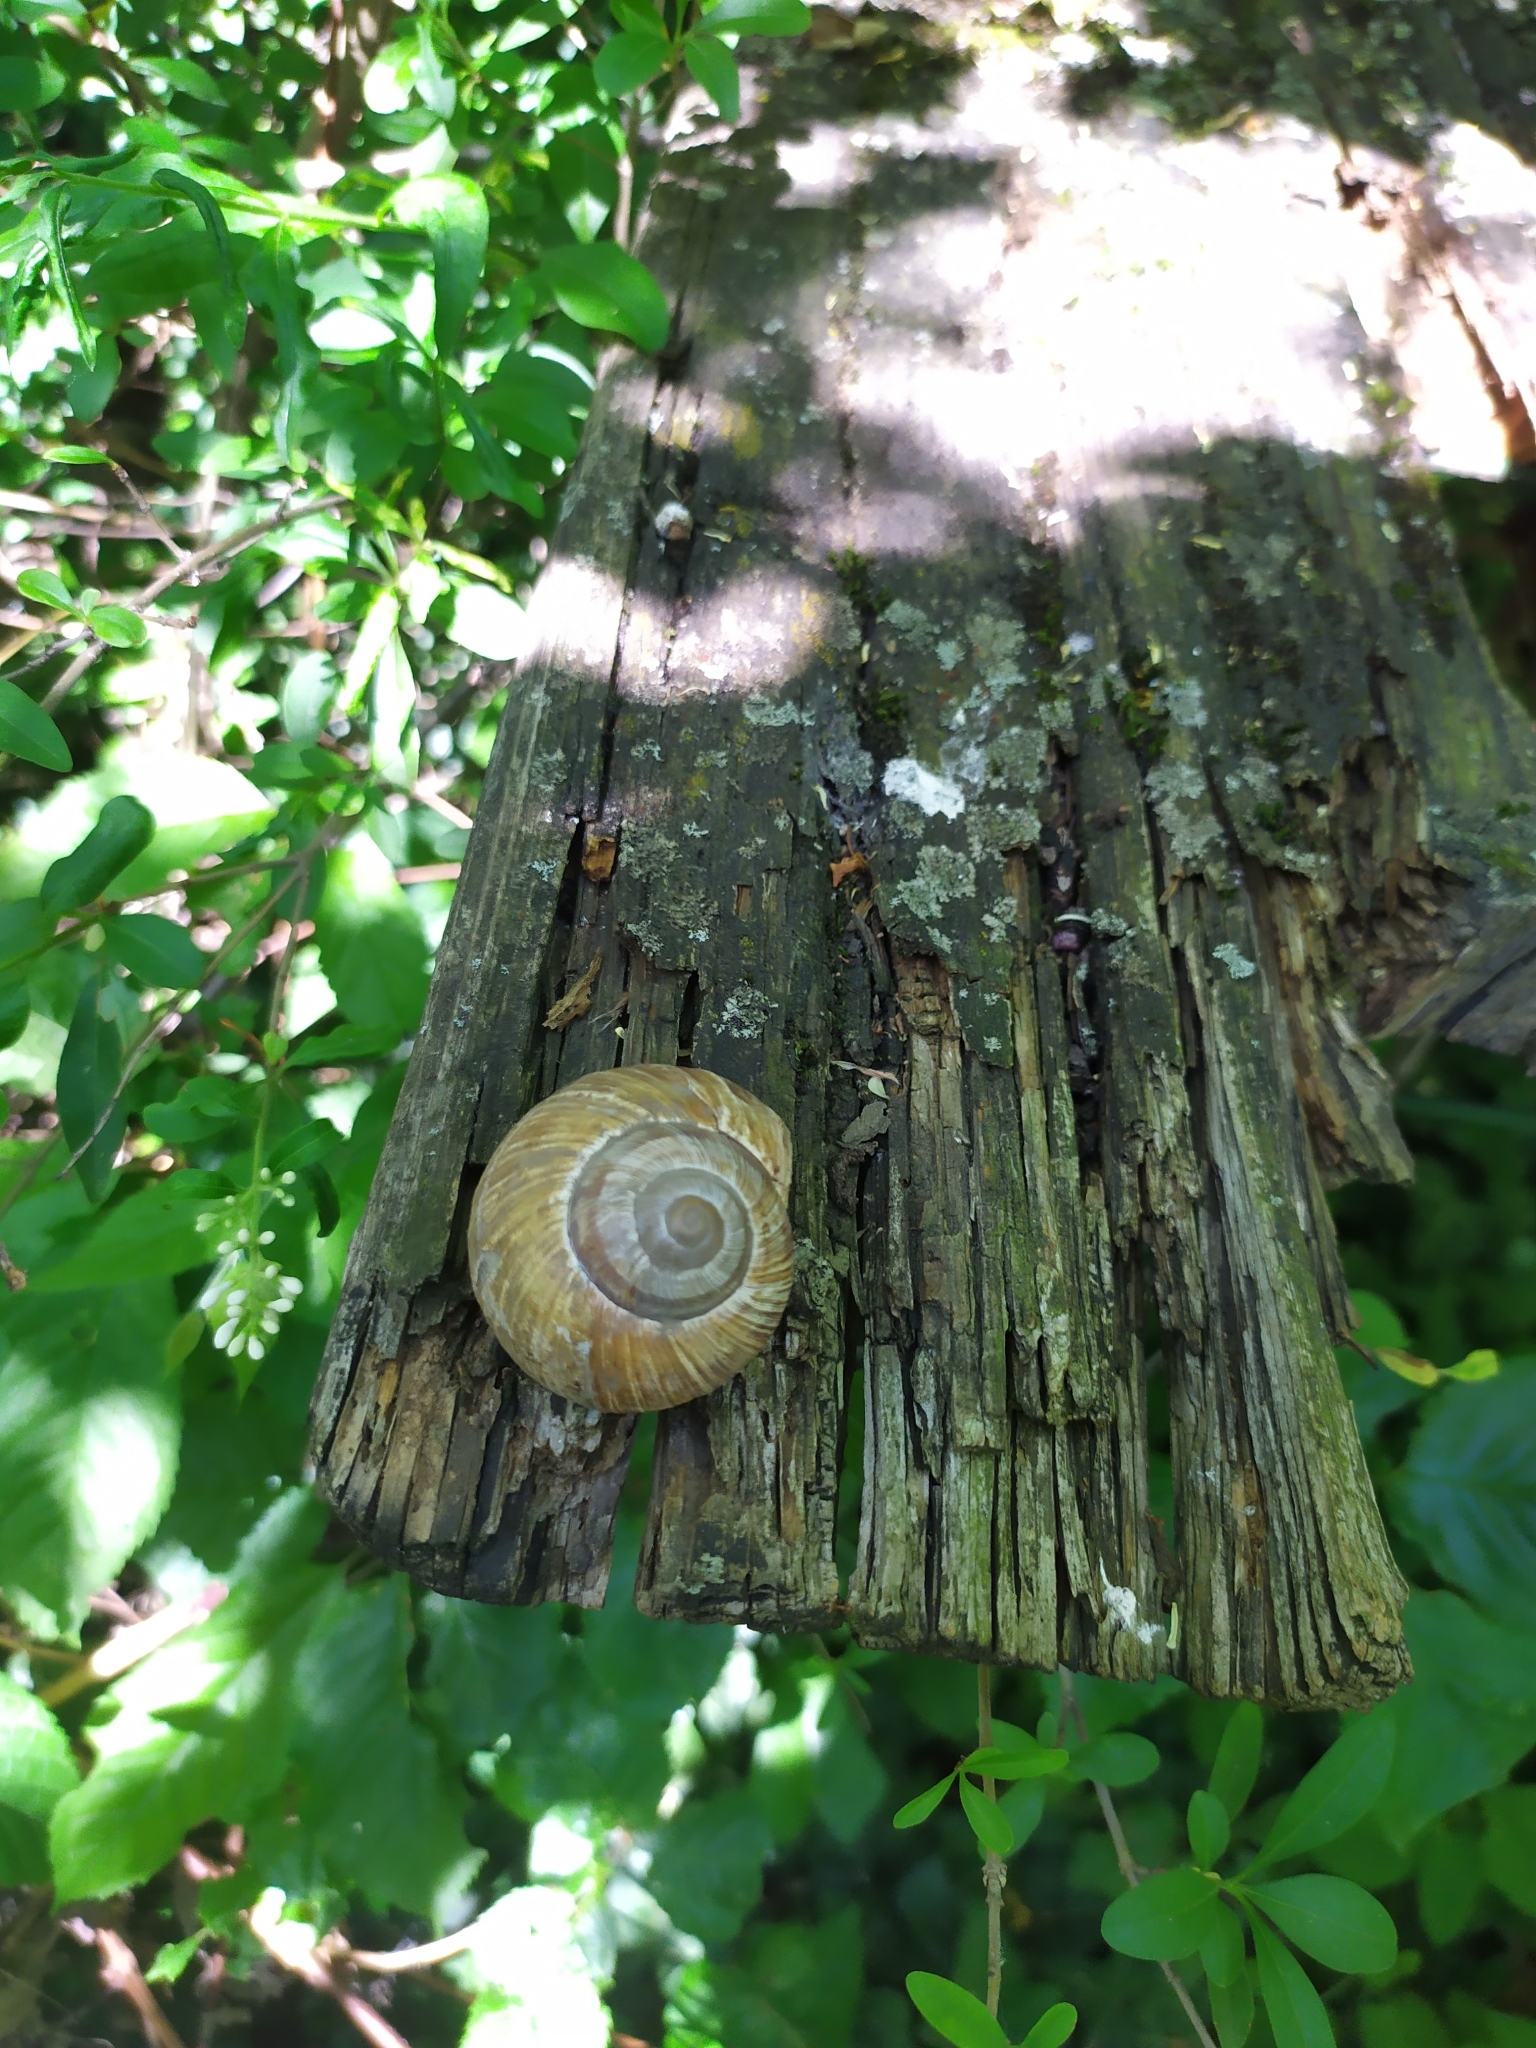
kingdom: Animalia
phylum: Mollusca
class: Gastropoda
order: Stylommatophora
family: Helicidae
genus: Helix
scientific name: Helix pomatia
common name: Roman snail
